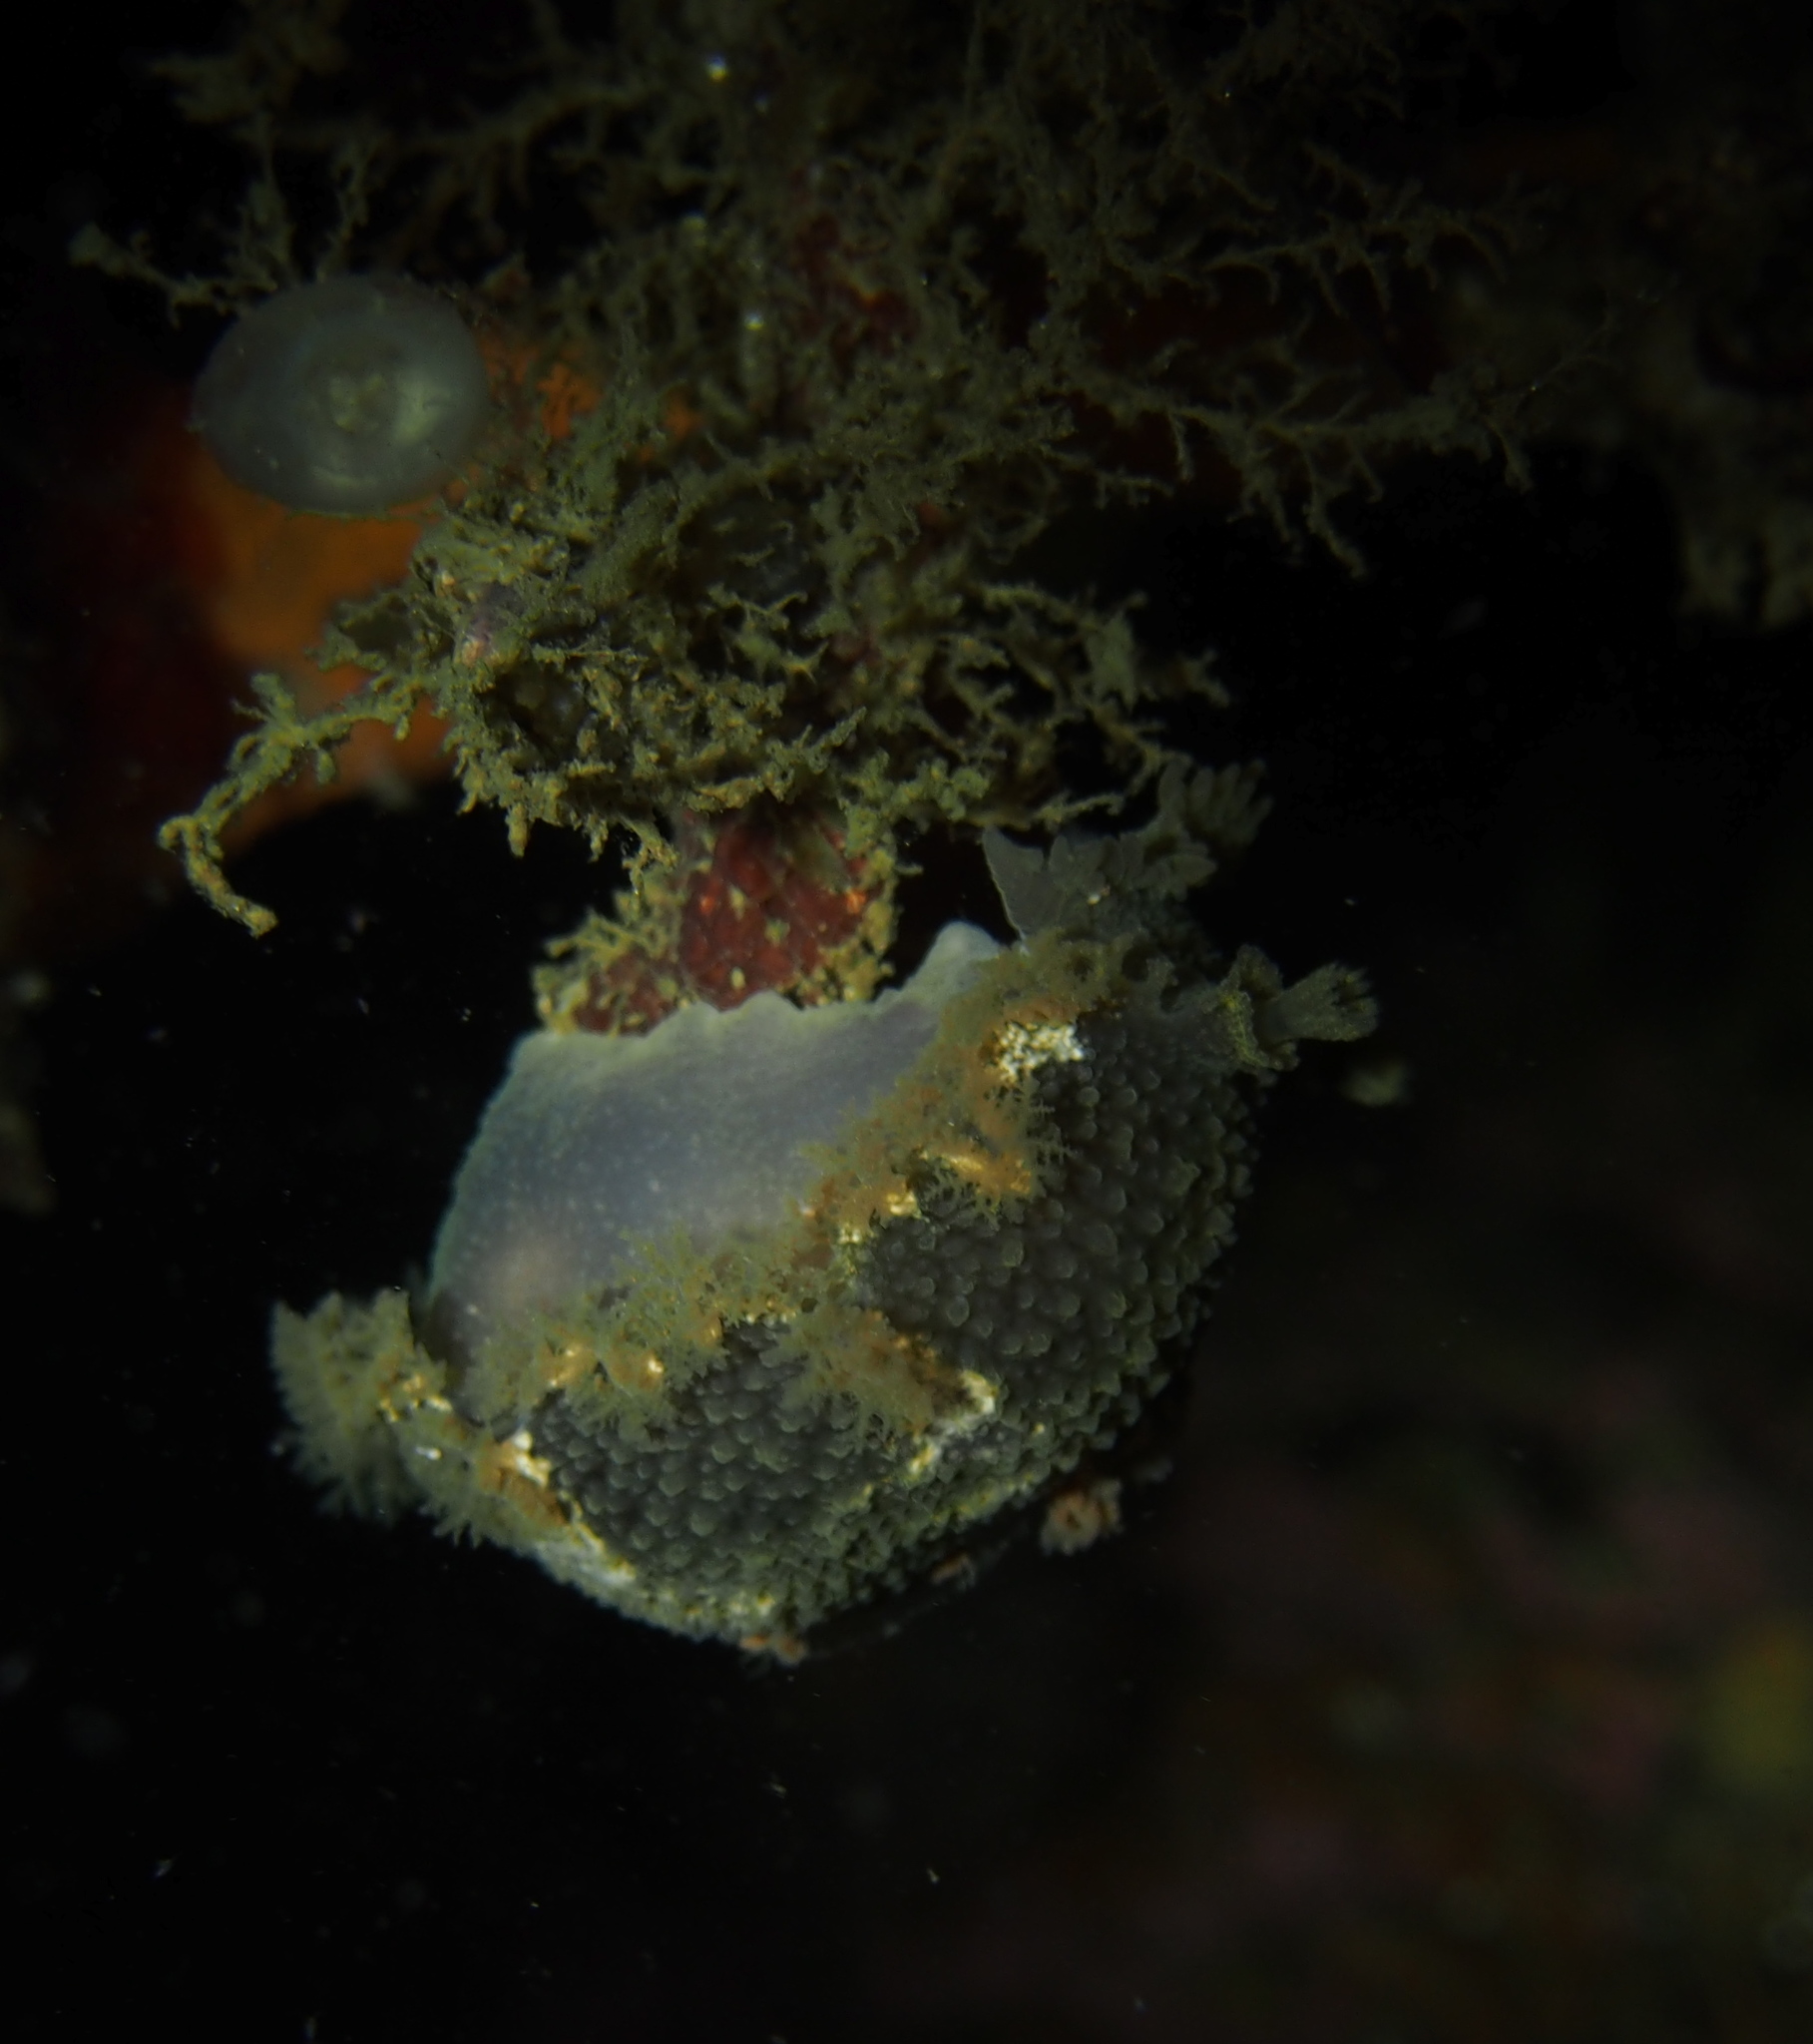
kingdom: Animalia
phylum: Mollusca
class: Gastropoda
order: Nudibranchia
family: Tritoniidae
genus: Tritonia
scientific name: Tritonia hombergii
